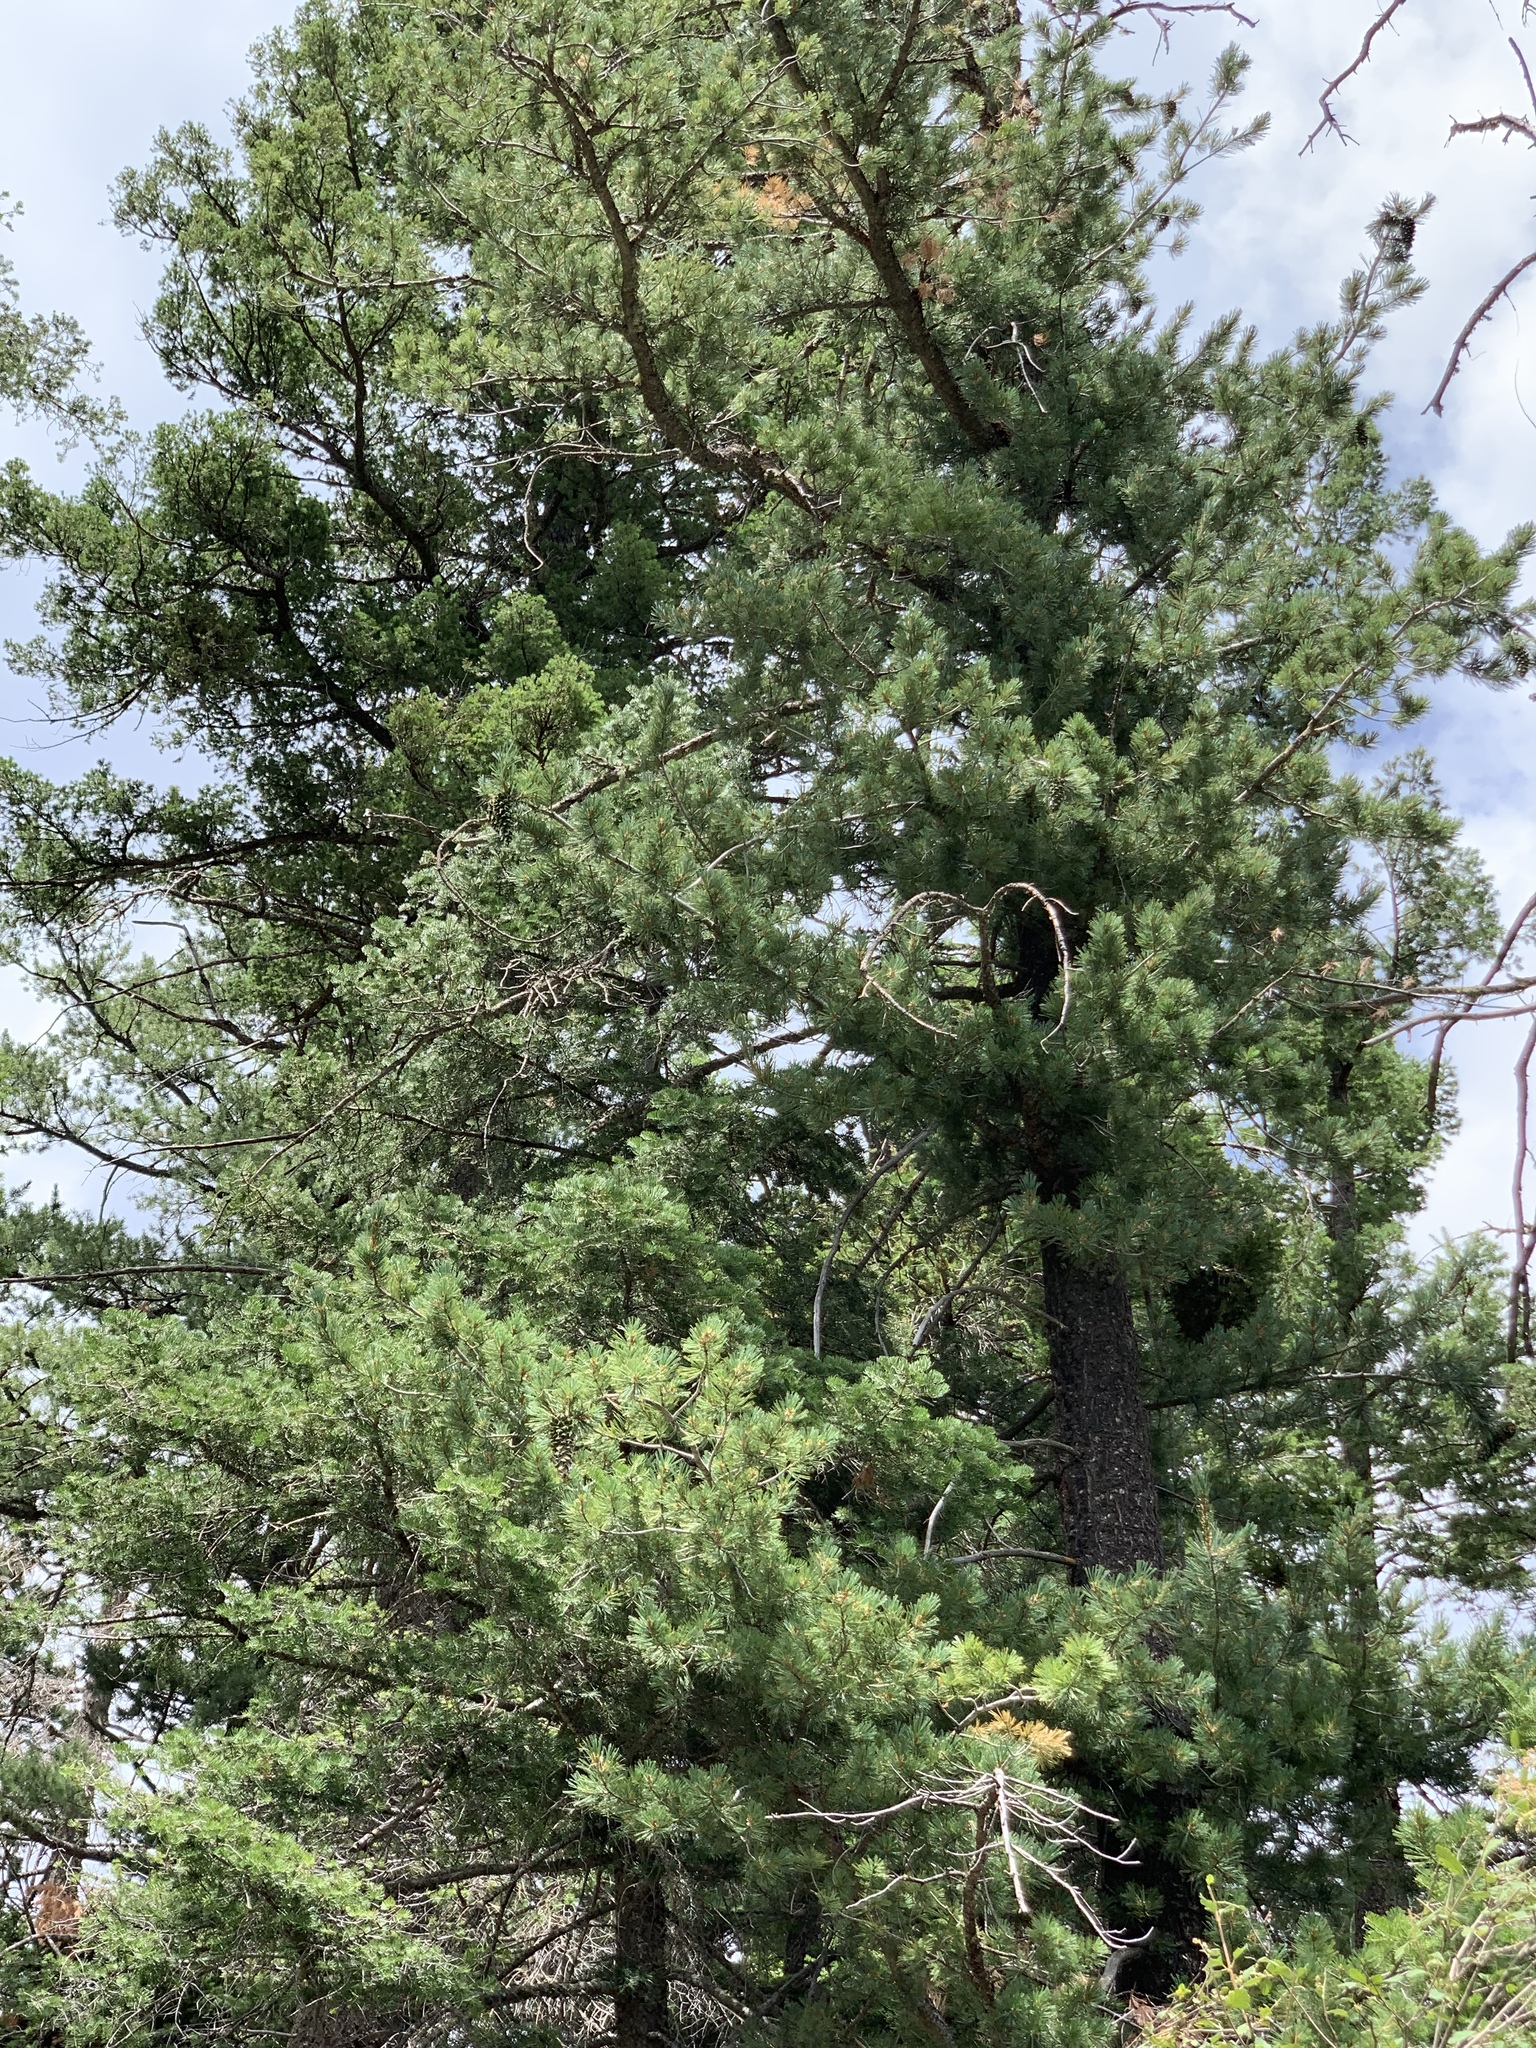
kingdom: Plantae
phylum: Tracheophyta
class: Pinopsida
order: Pinales
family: Pinaceae
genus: Pinus
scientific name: Pinus strobiformis
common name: Southwestern white pine
